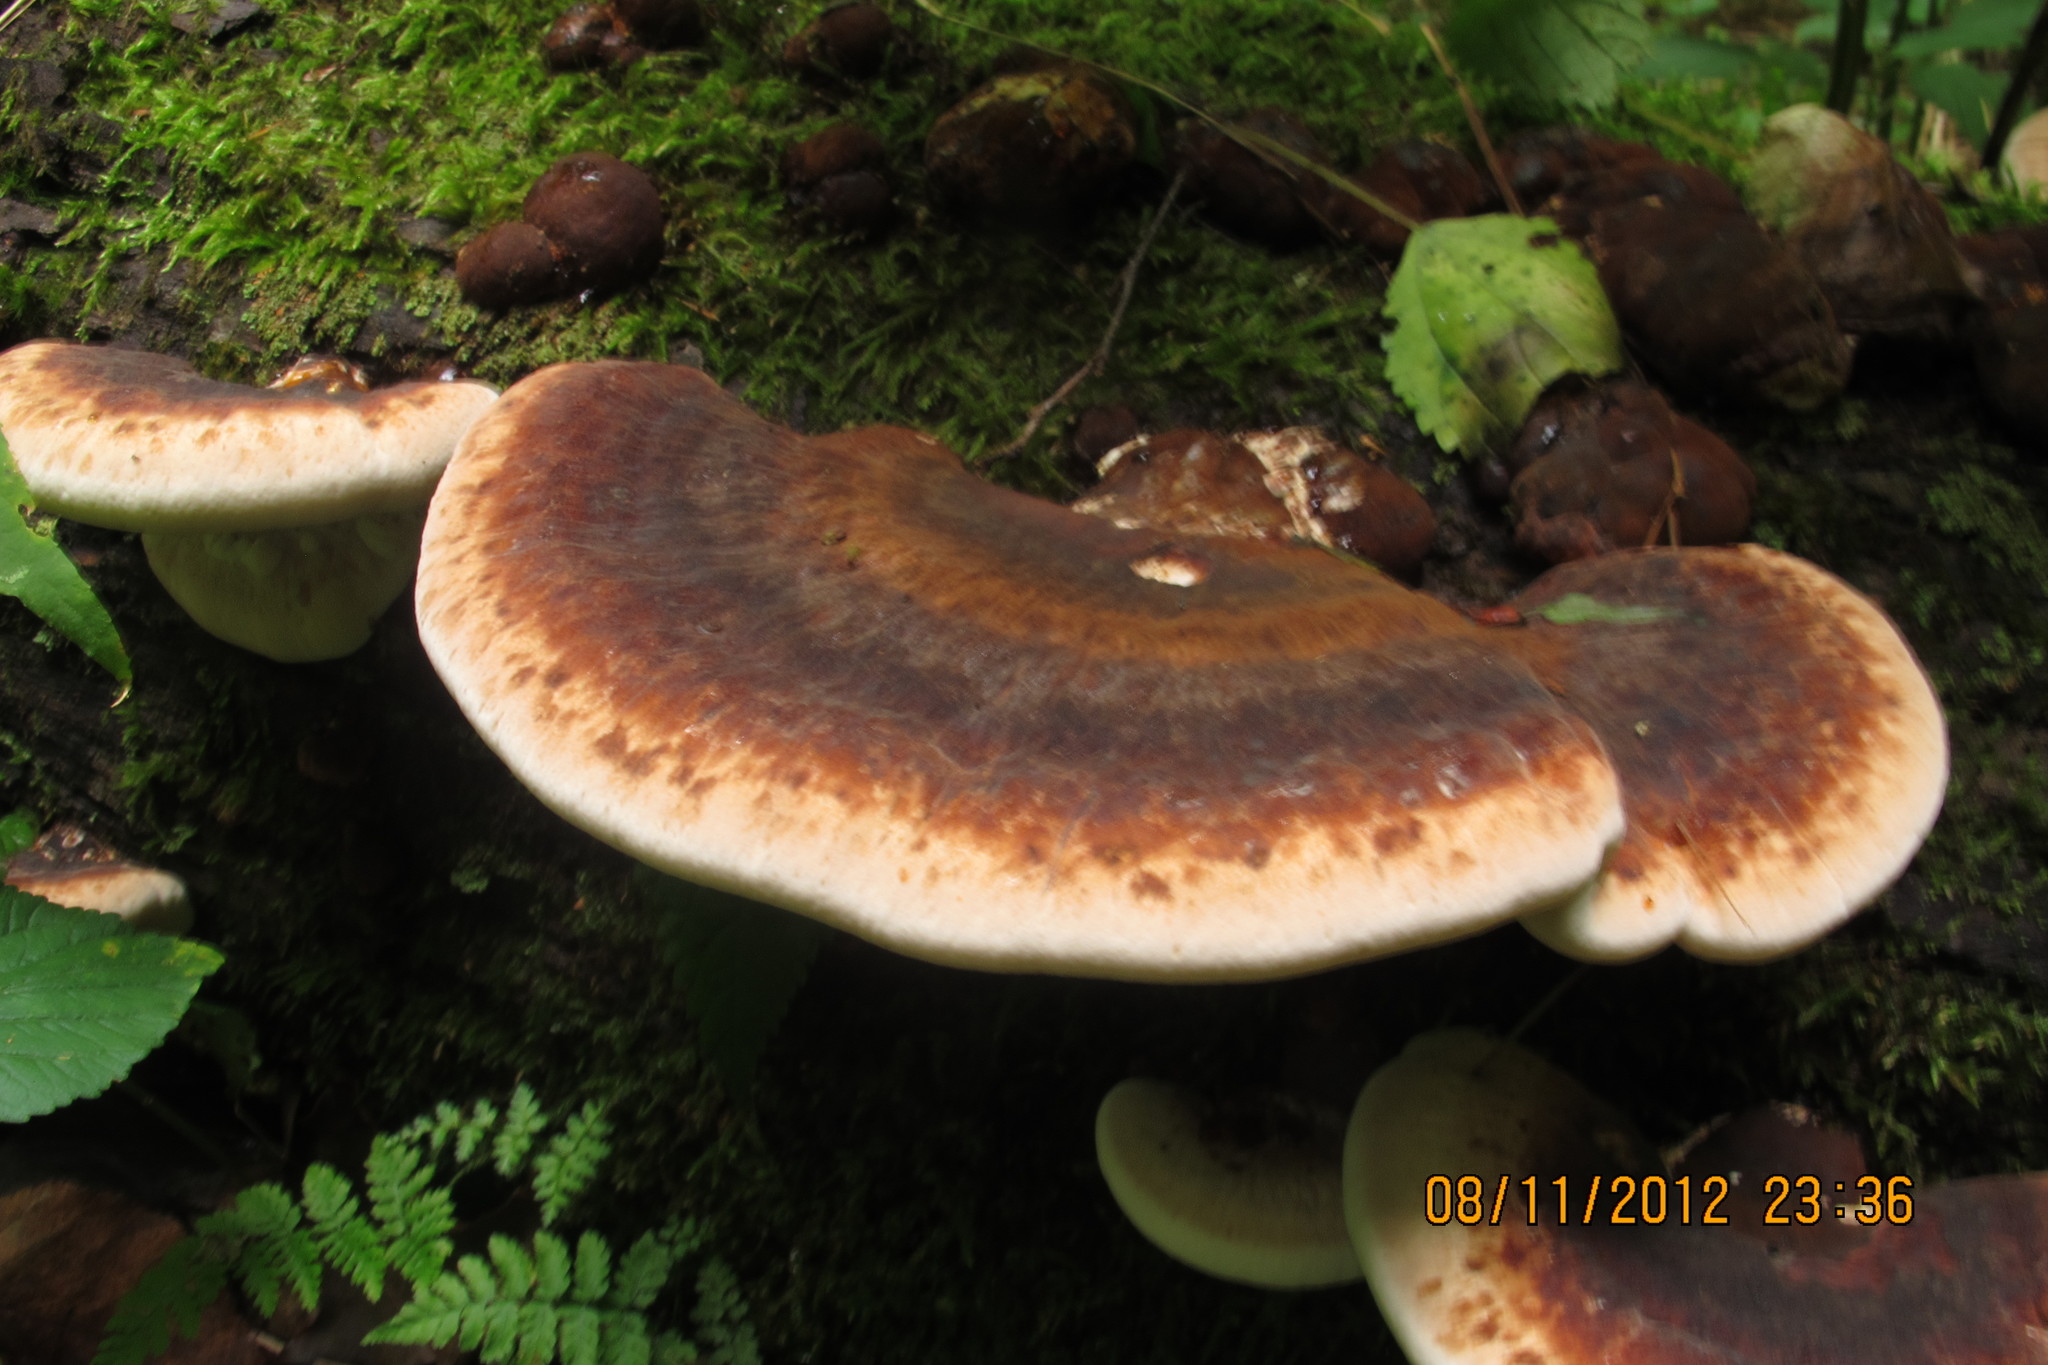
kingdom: Fungi
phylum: Basidiomycota
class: Agaricomycetes
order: Polyporales
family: Ischnodermataceae
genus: Ischnoderma
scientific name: Ischnoderma resinosum
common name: Resinous polypore
